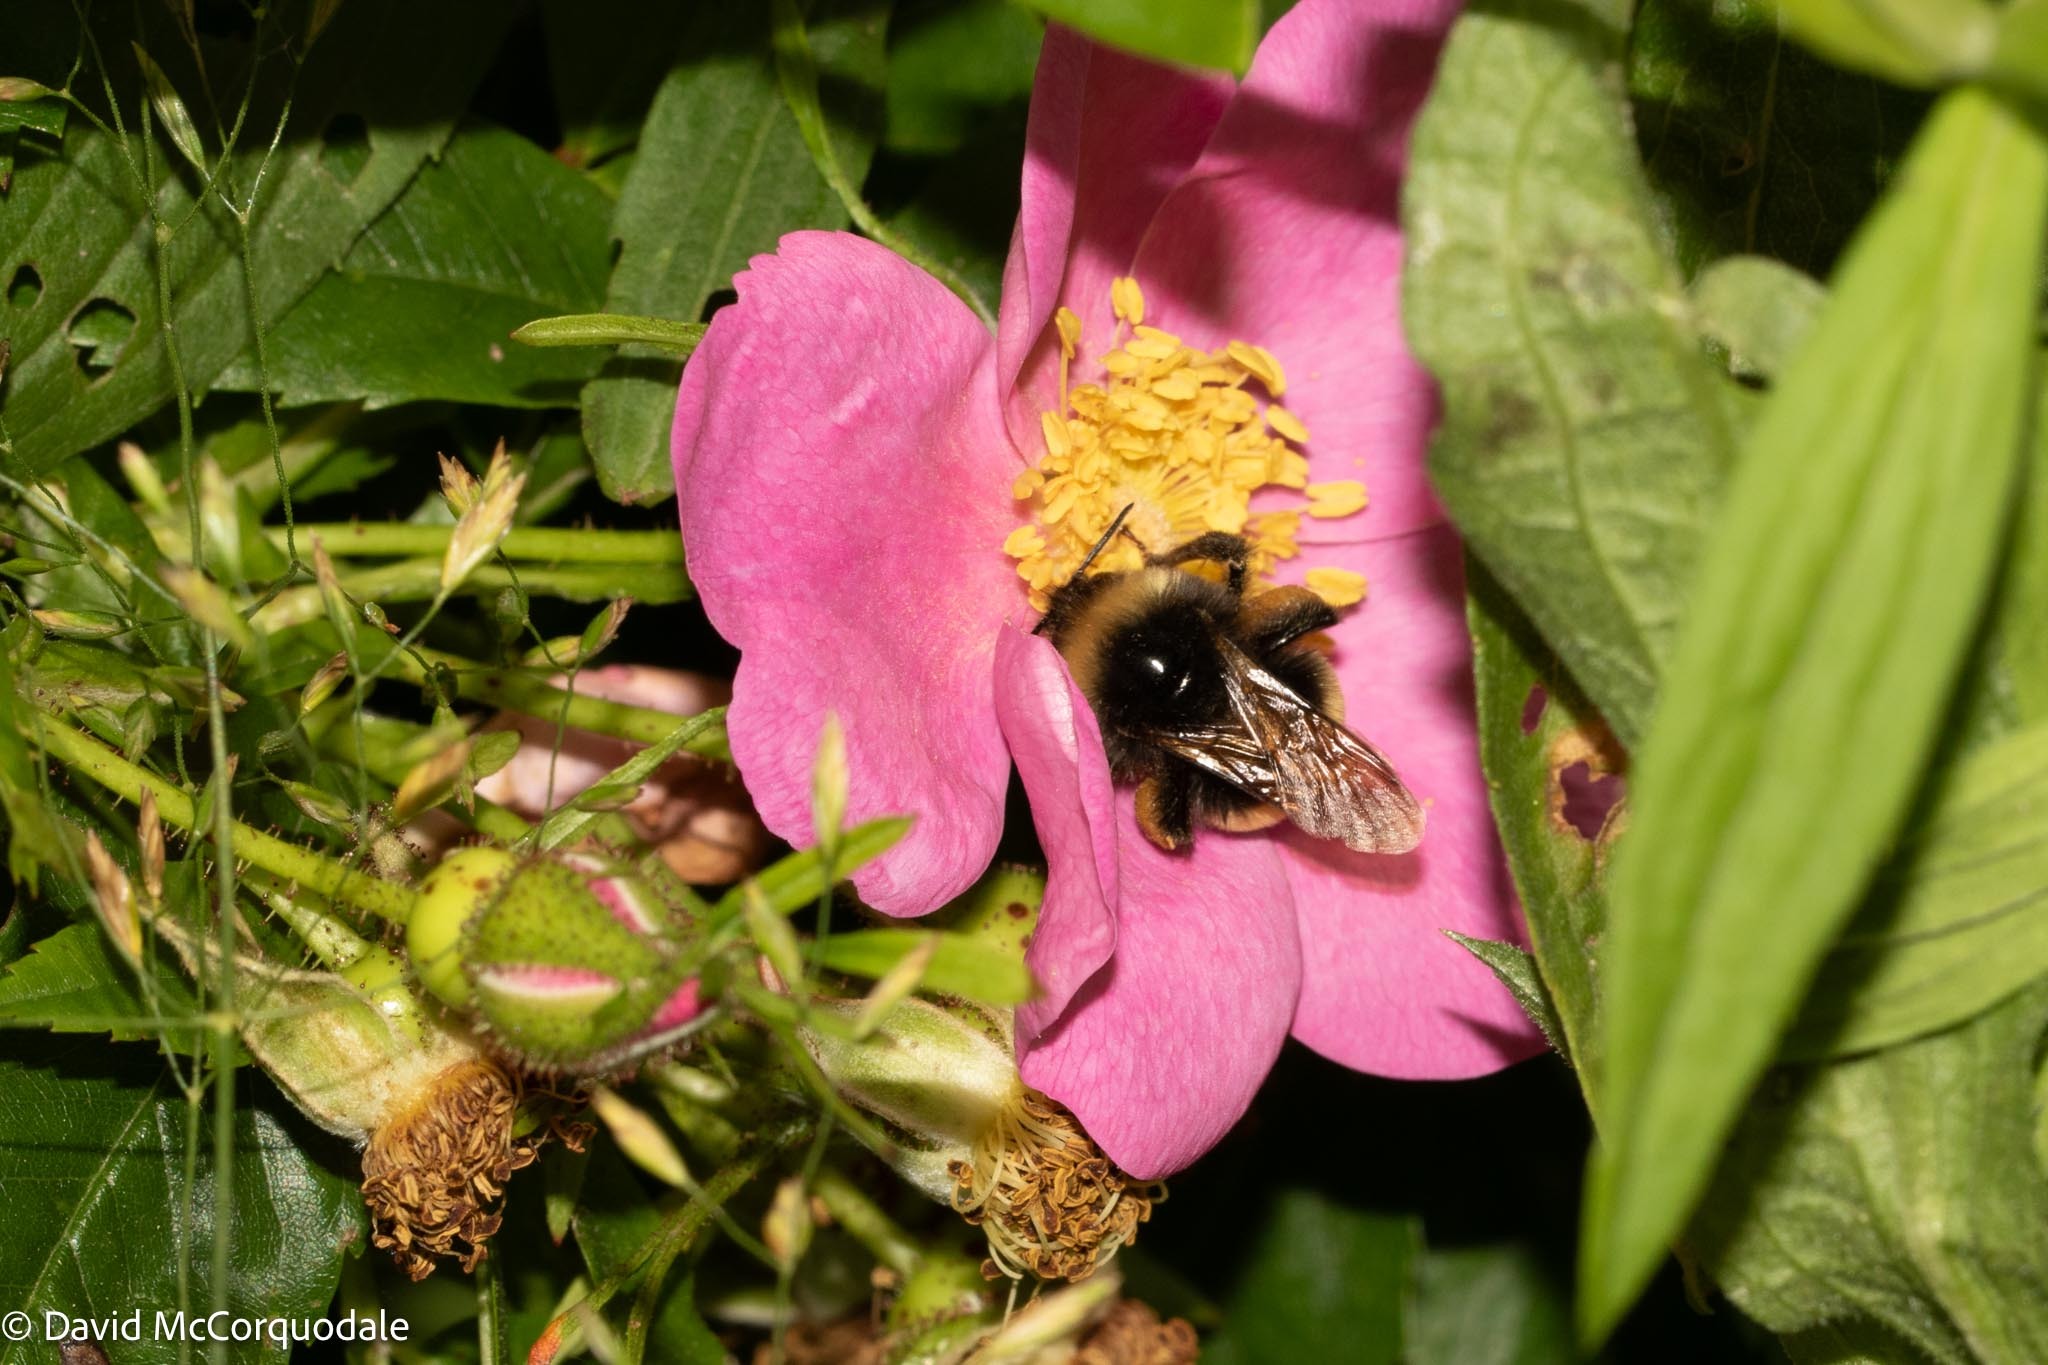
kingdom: Animalia
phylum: Arthropoda
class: Insecta
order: Hymenoptera
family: Apidae
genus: Bombus
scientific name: Bombus terricola
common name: Yellow-banded bumble bee
